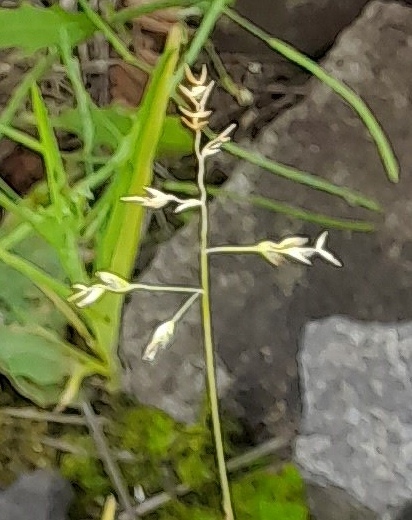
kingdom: Plantae
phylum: Tracheophyta
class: Liliopsida
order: Poales
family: Poaceae
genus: Poa
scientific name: Poa annua
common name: Annual bluegrass
